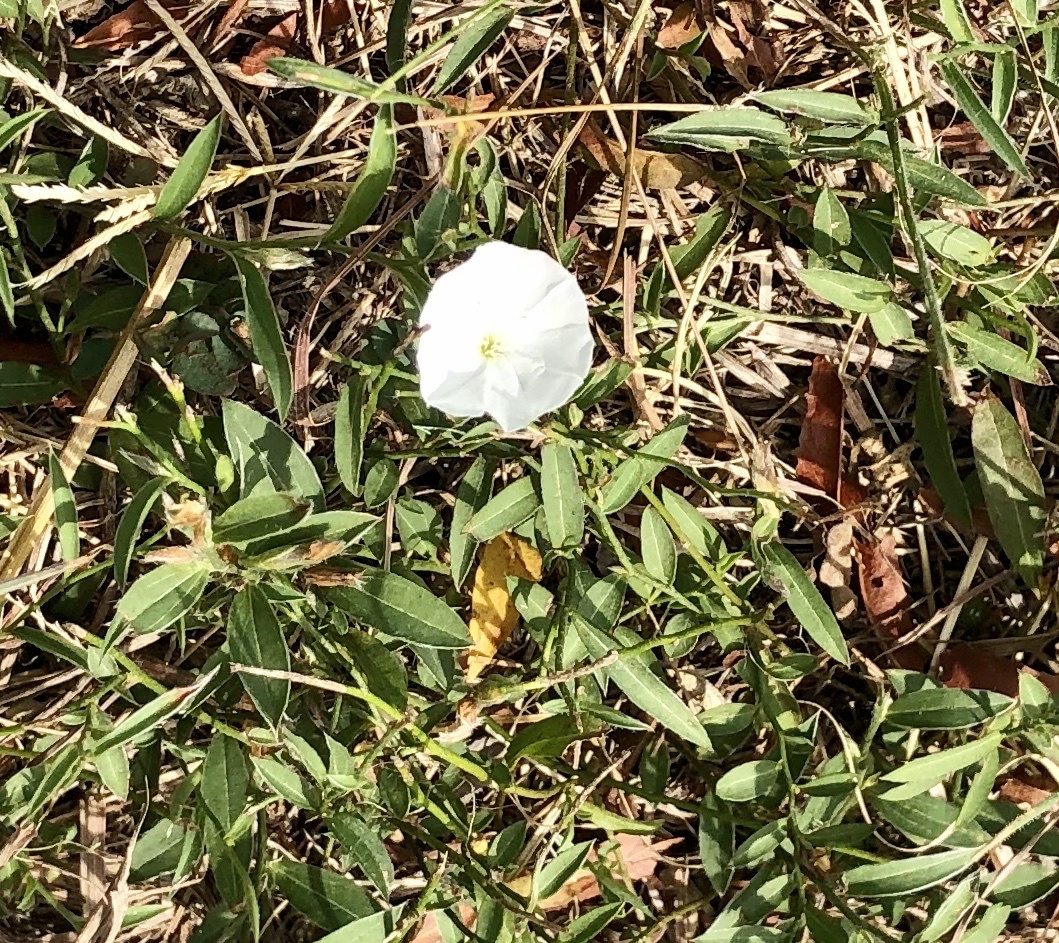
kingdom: Plantae
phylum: Tracheophyta
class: Magnoliopsida
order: Solanales
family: Convolvulaceae
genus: Evolvulus
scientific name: Evolvulus sericeus
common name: Blue dots
